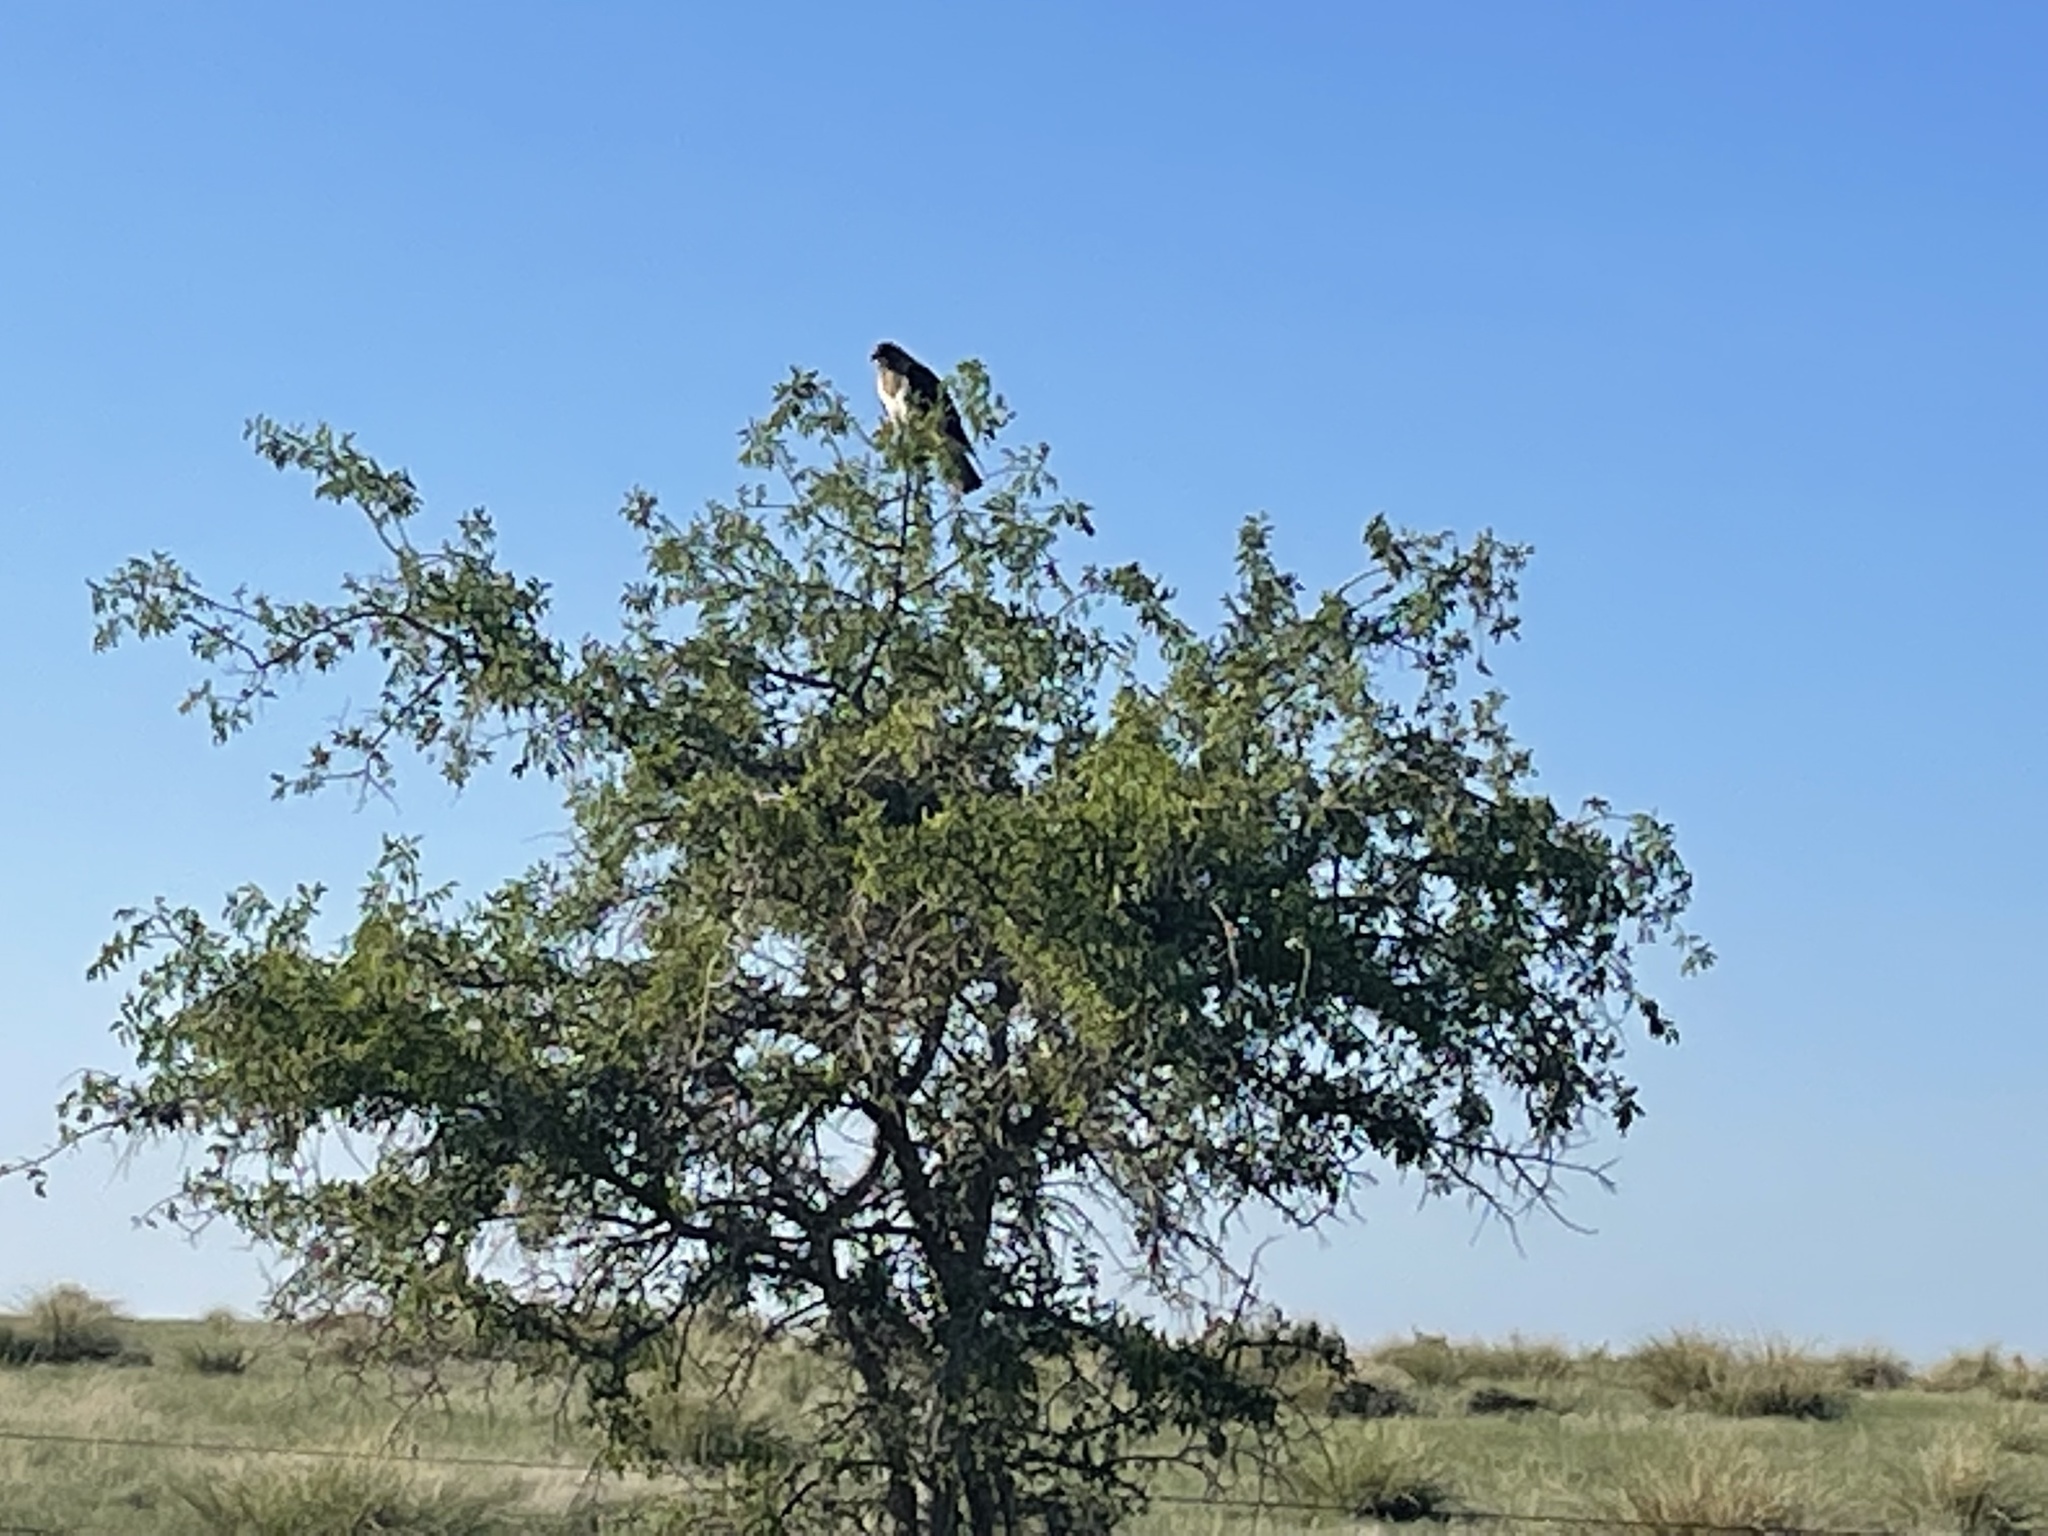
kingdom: Animalia
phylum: Chordata
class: Aves
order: Accipitriformes
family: Accipitridae
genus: Buteo
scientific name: Buteo swainsoni
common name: Swainson's hawk
